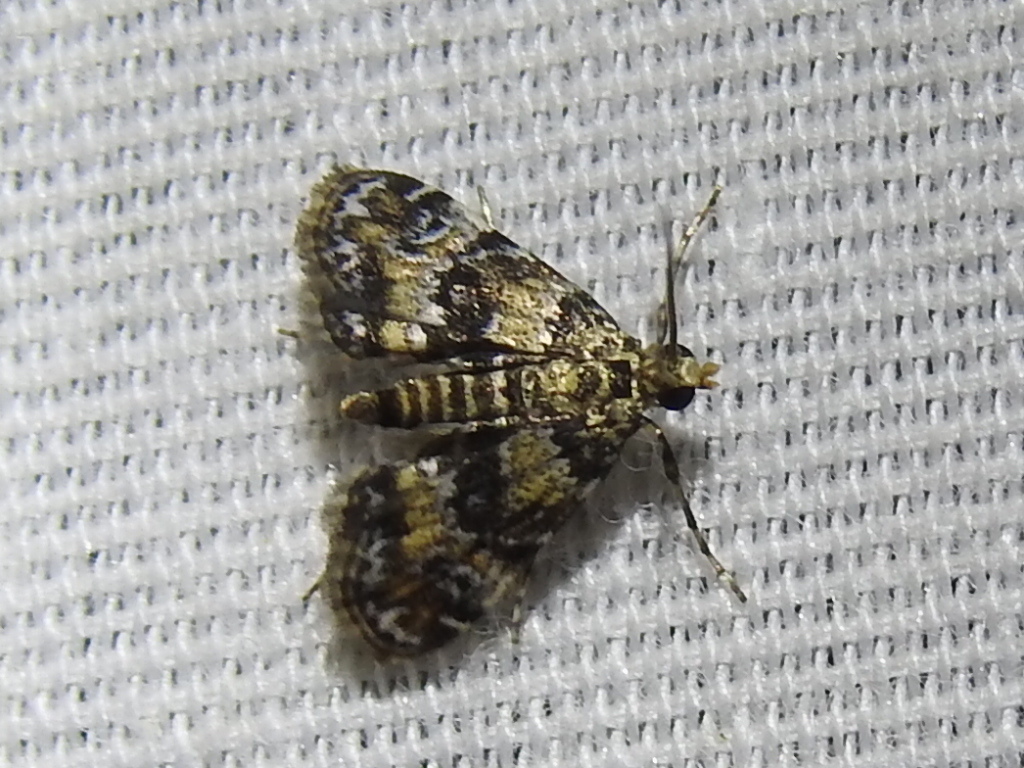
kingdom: Animalia
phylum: Arthropoda
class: Insecta
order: Lepidoptera
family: Crambidae
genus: Elophila
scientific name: Elophila obliteralis
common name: Waterlily leafcutter moth
